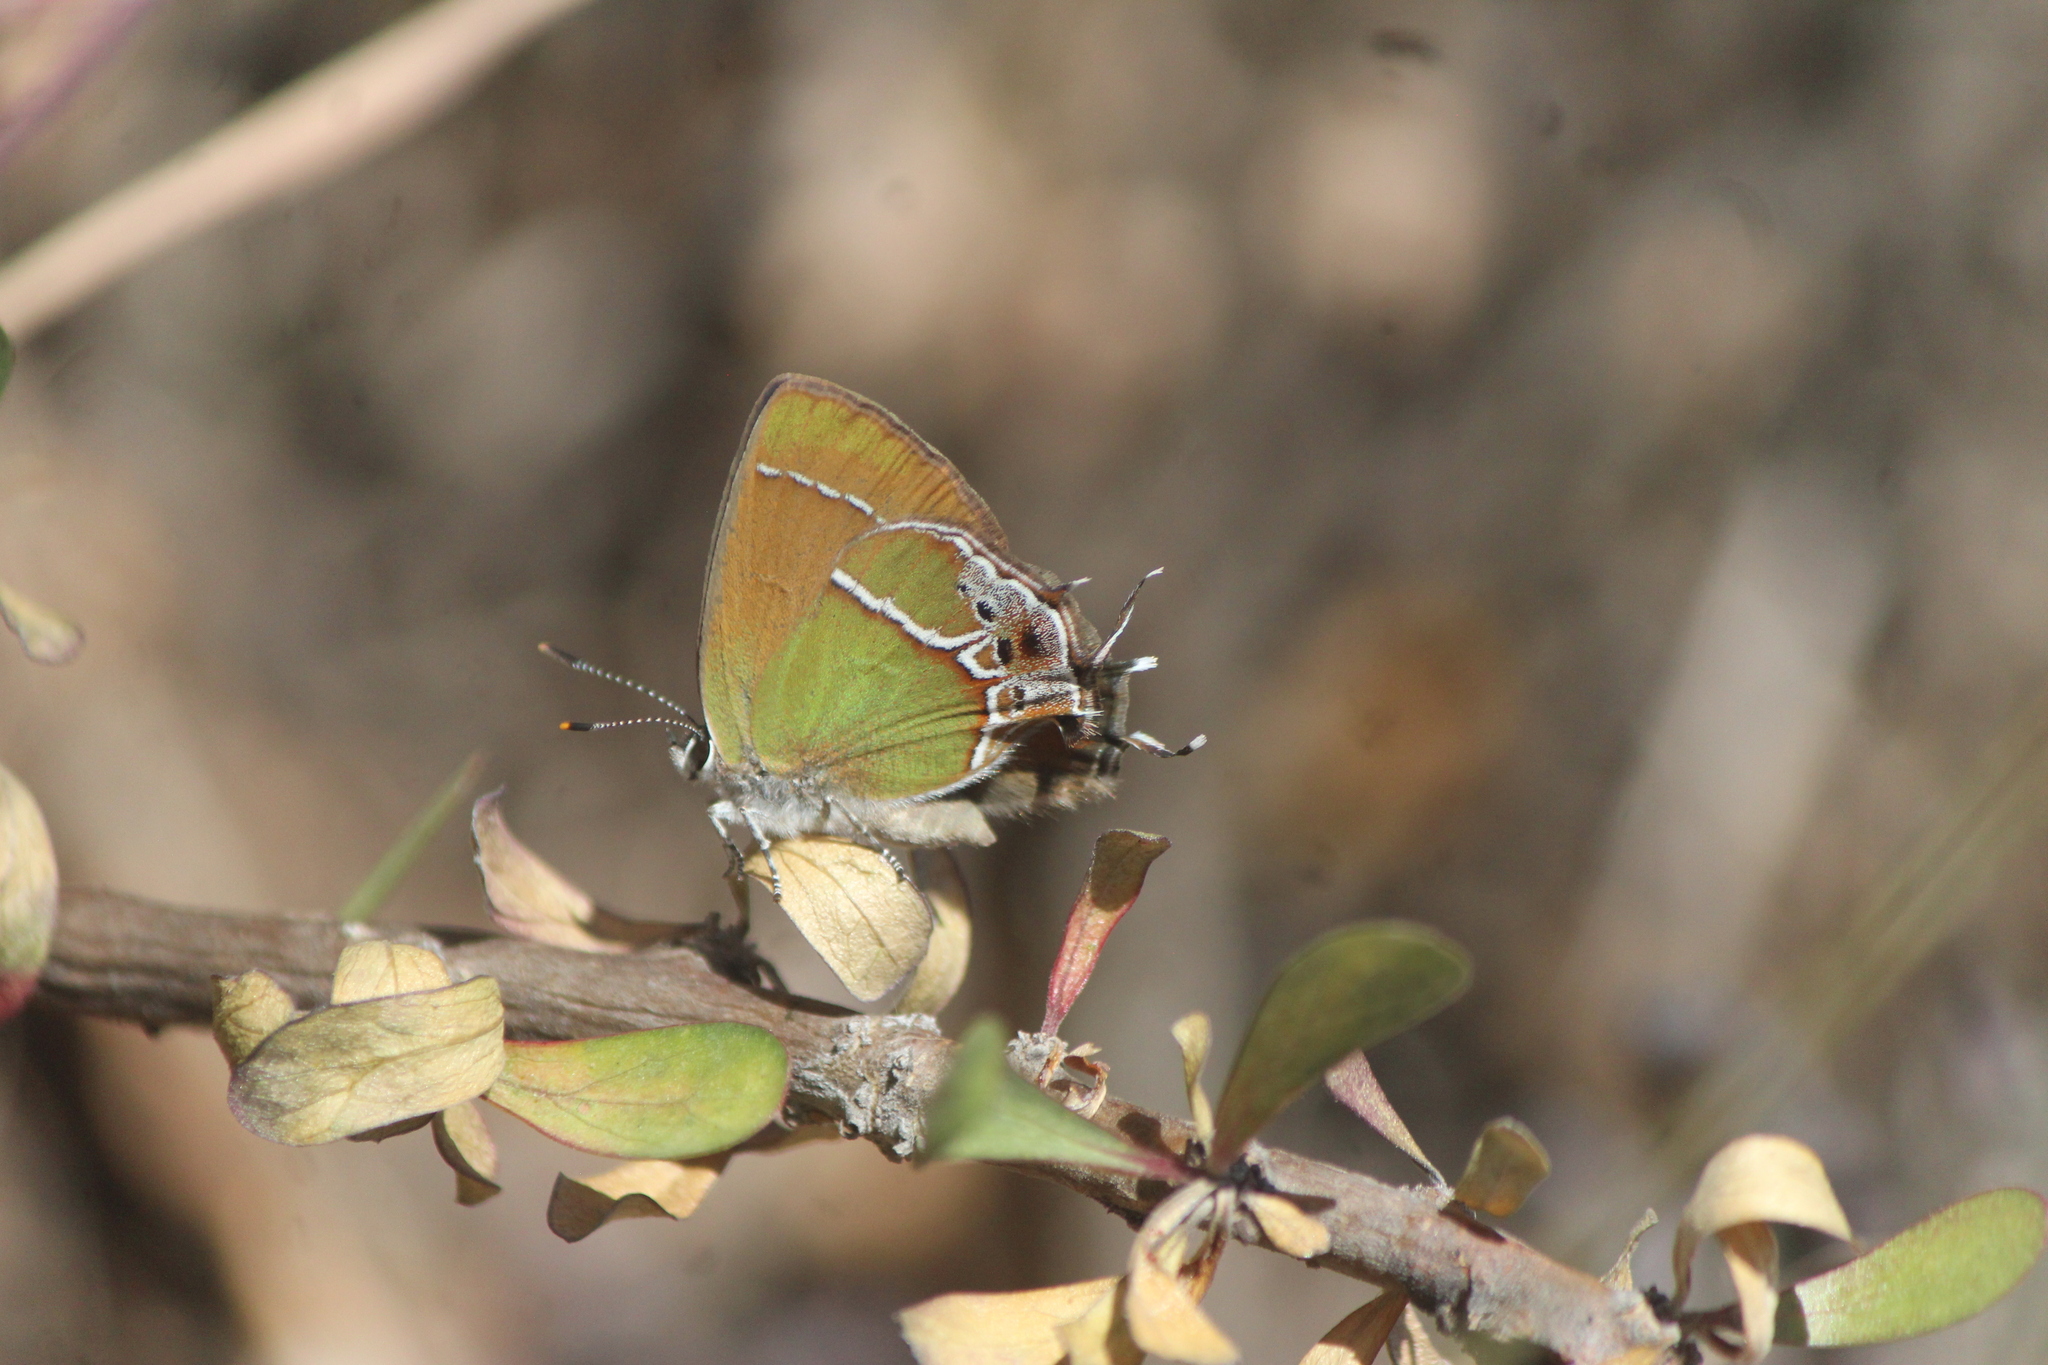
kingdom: Animalia
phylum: Arthropoda
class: Insecta
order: Lepidoptera
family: Lycaenidae
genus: Xamia
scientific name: Xamia xami
